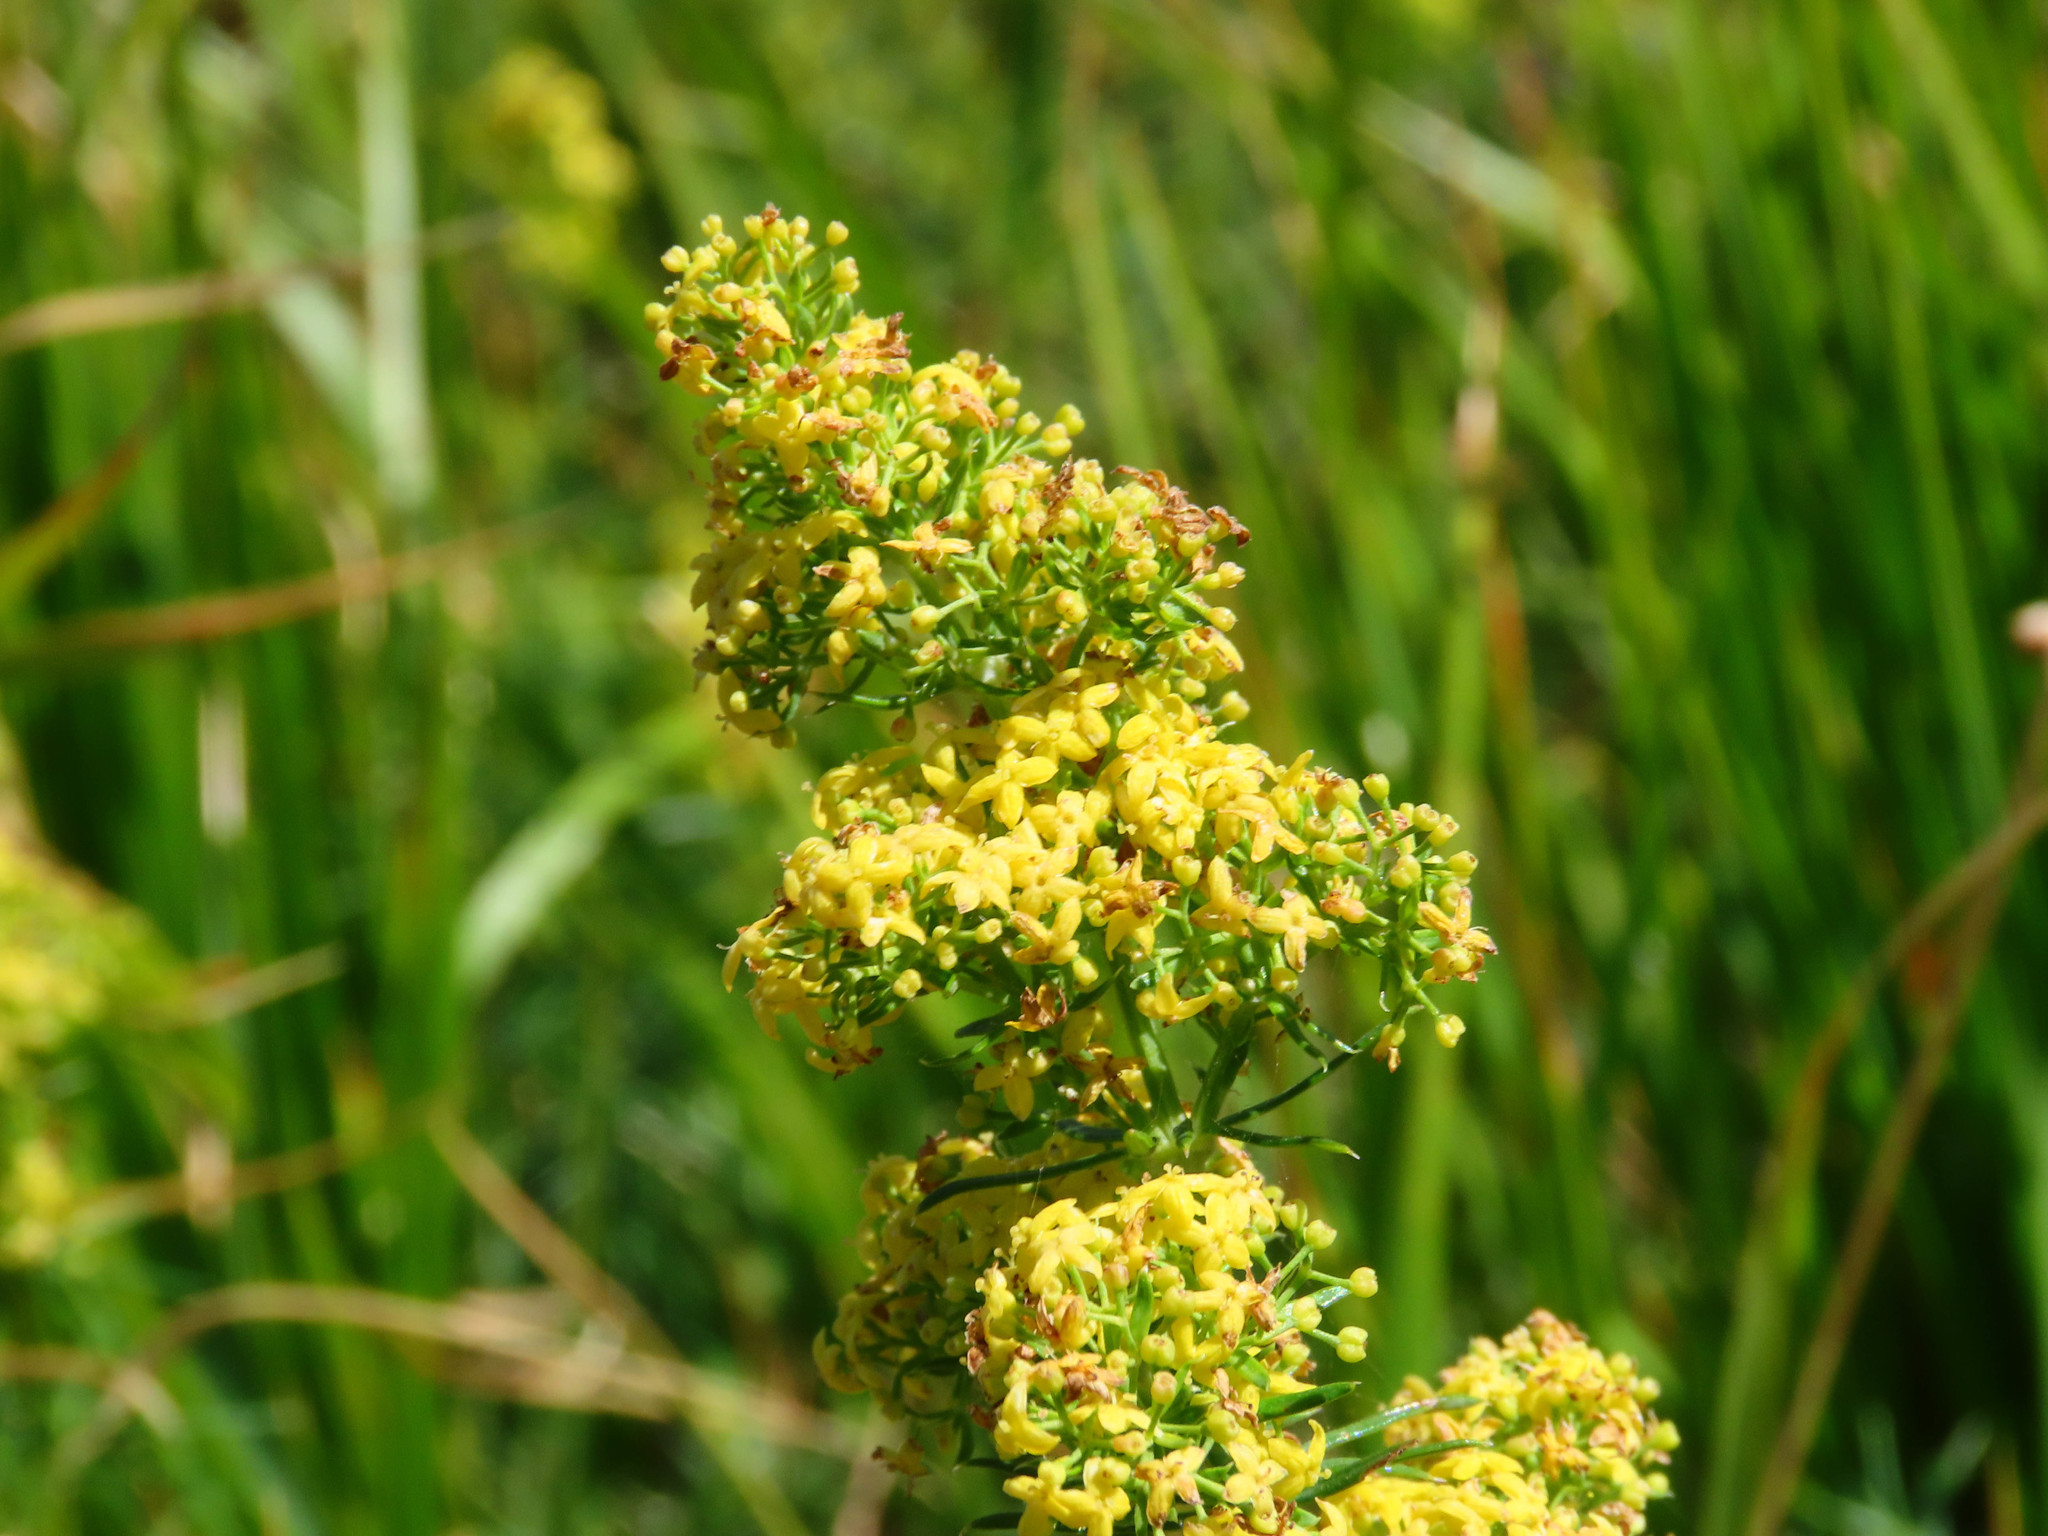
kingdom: Plantae
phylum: Tracheophyta
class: Magnoliopsida
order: Gentianales
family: Rubiaceae
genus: Galium
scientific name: Galium verum
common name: Lady's bedstraw
